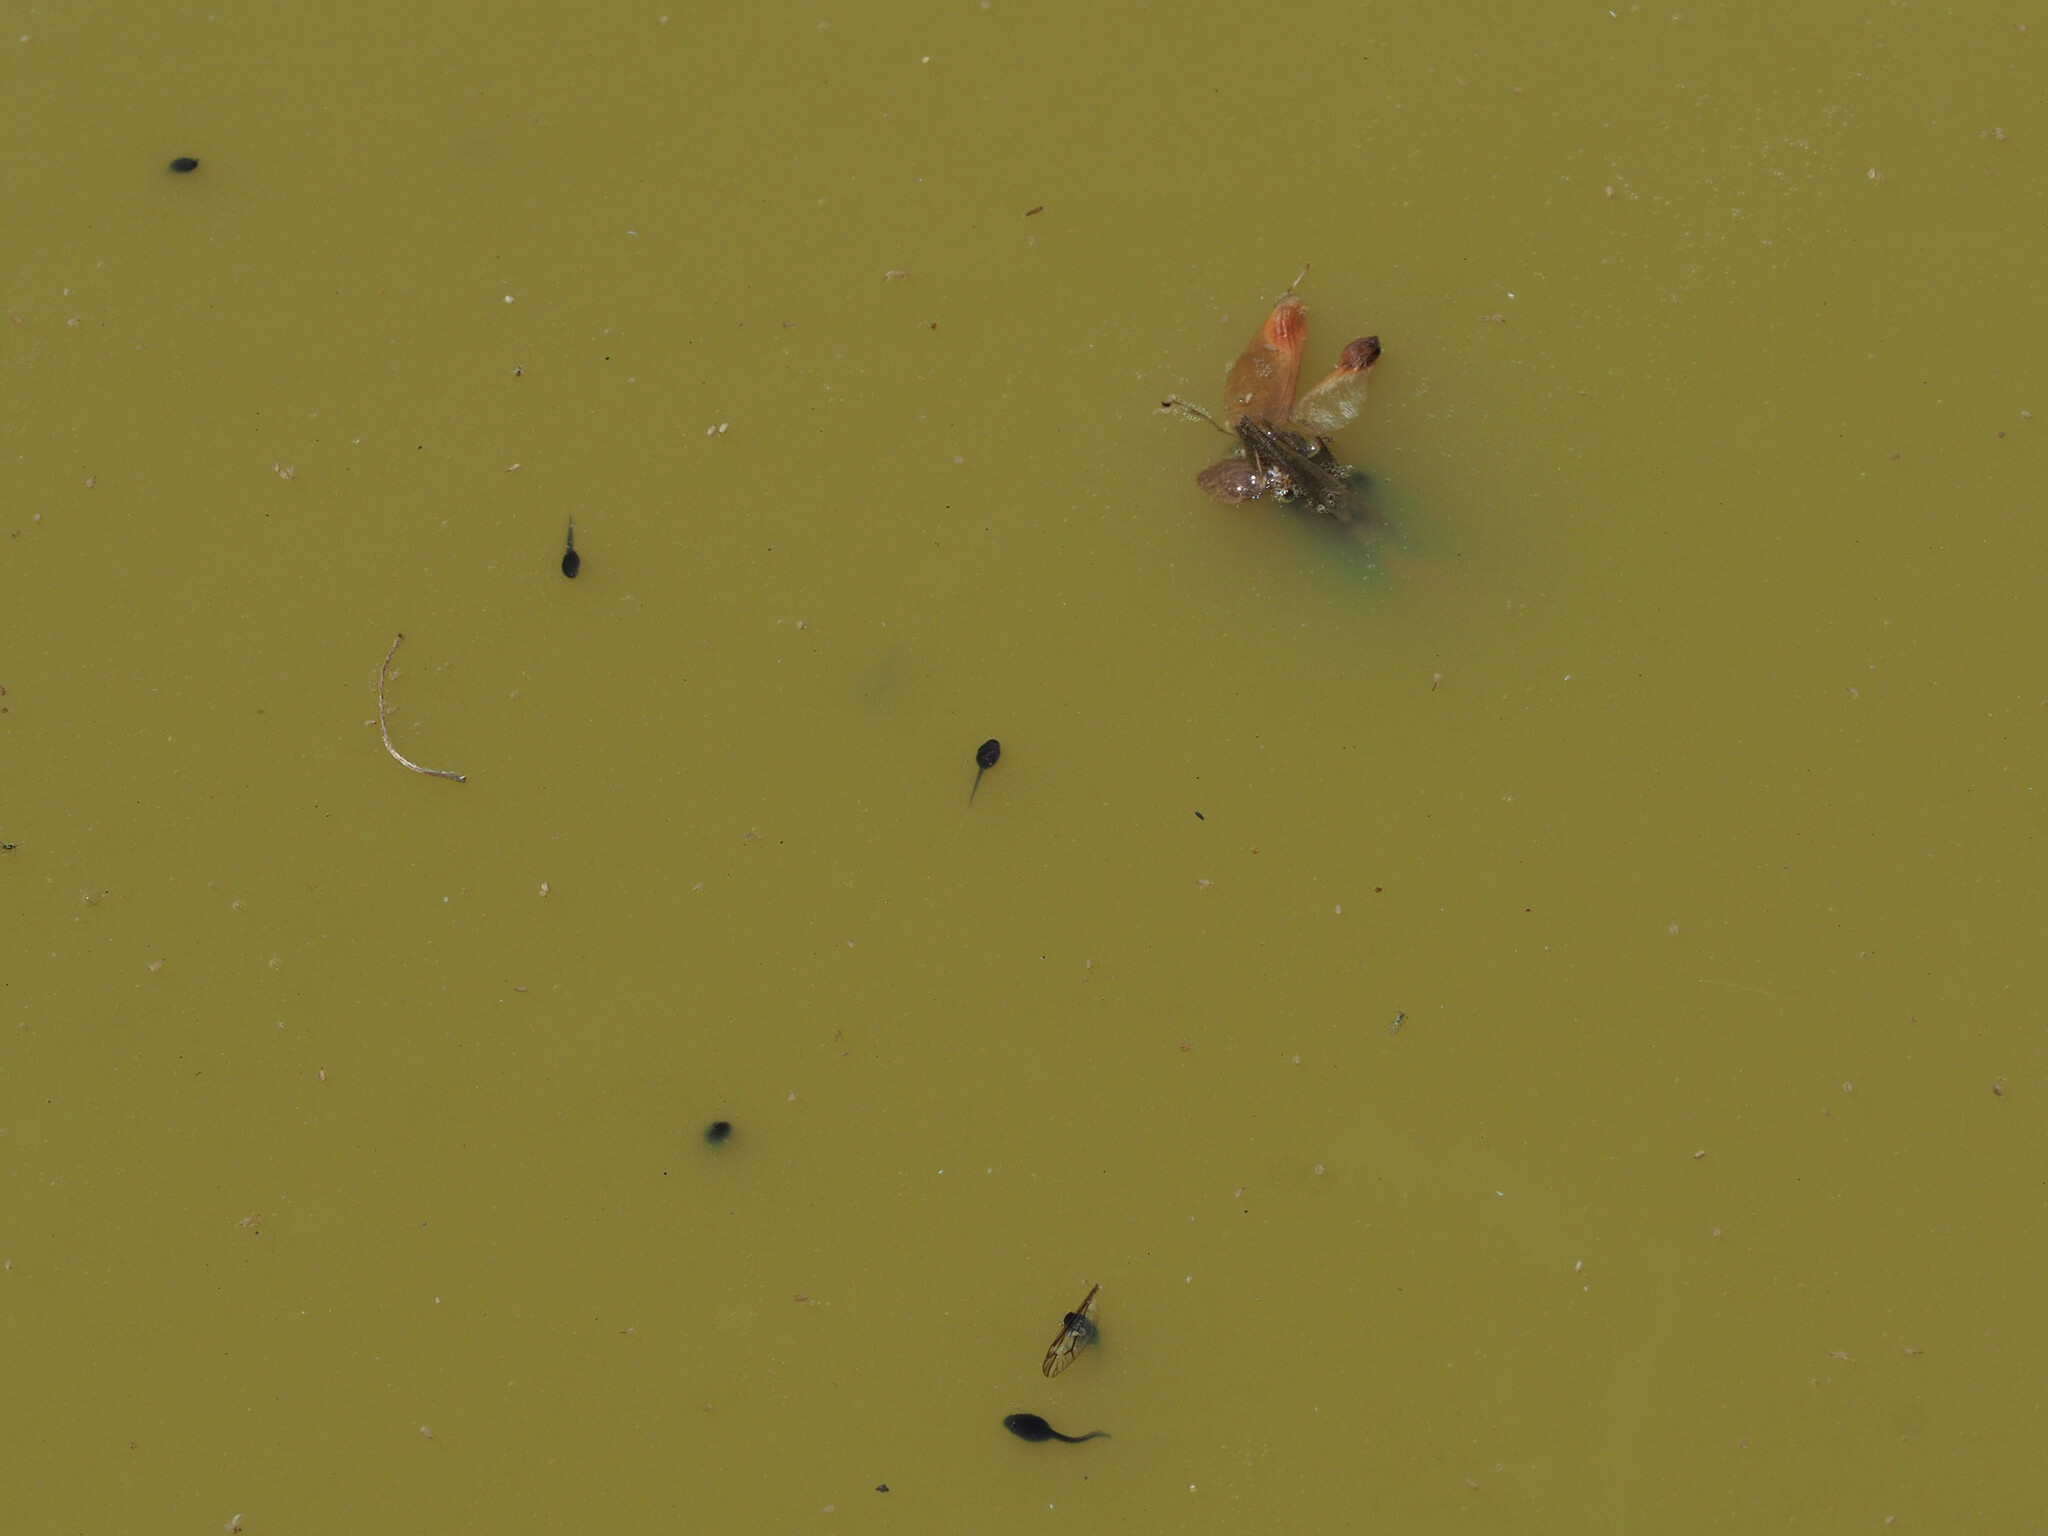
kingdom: Animalia
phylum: Chordata
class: Amphibia
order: Anura
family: Bufonidae
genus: Anaxyrus
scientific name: Anaxyrus americanus
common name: American toad
